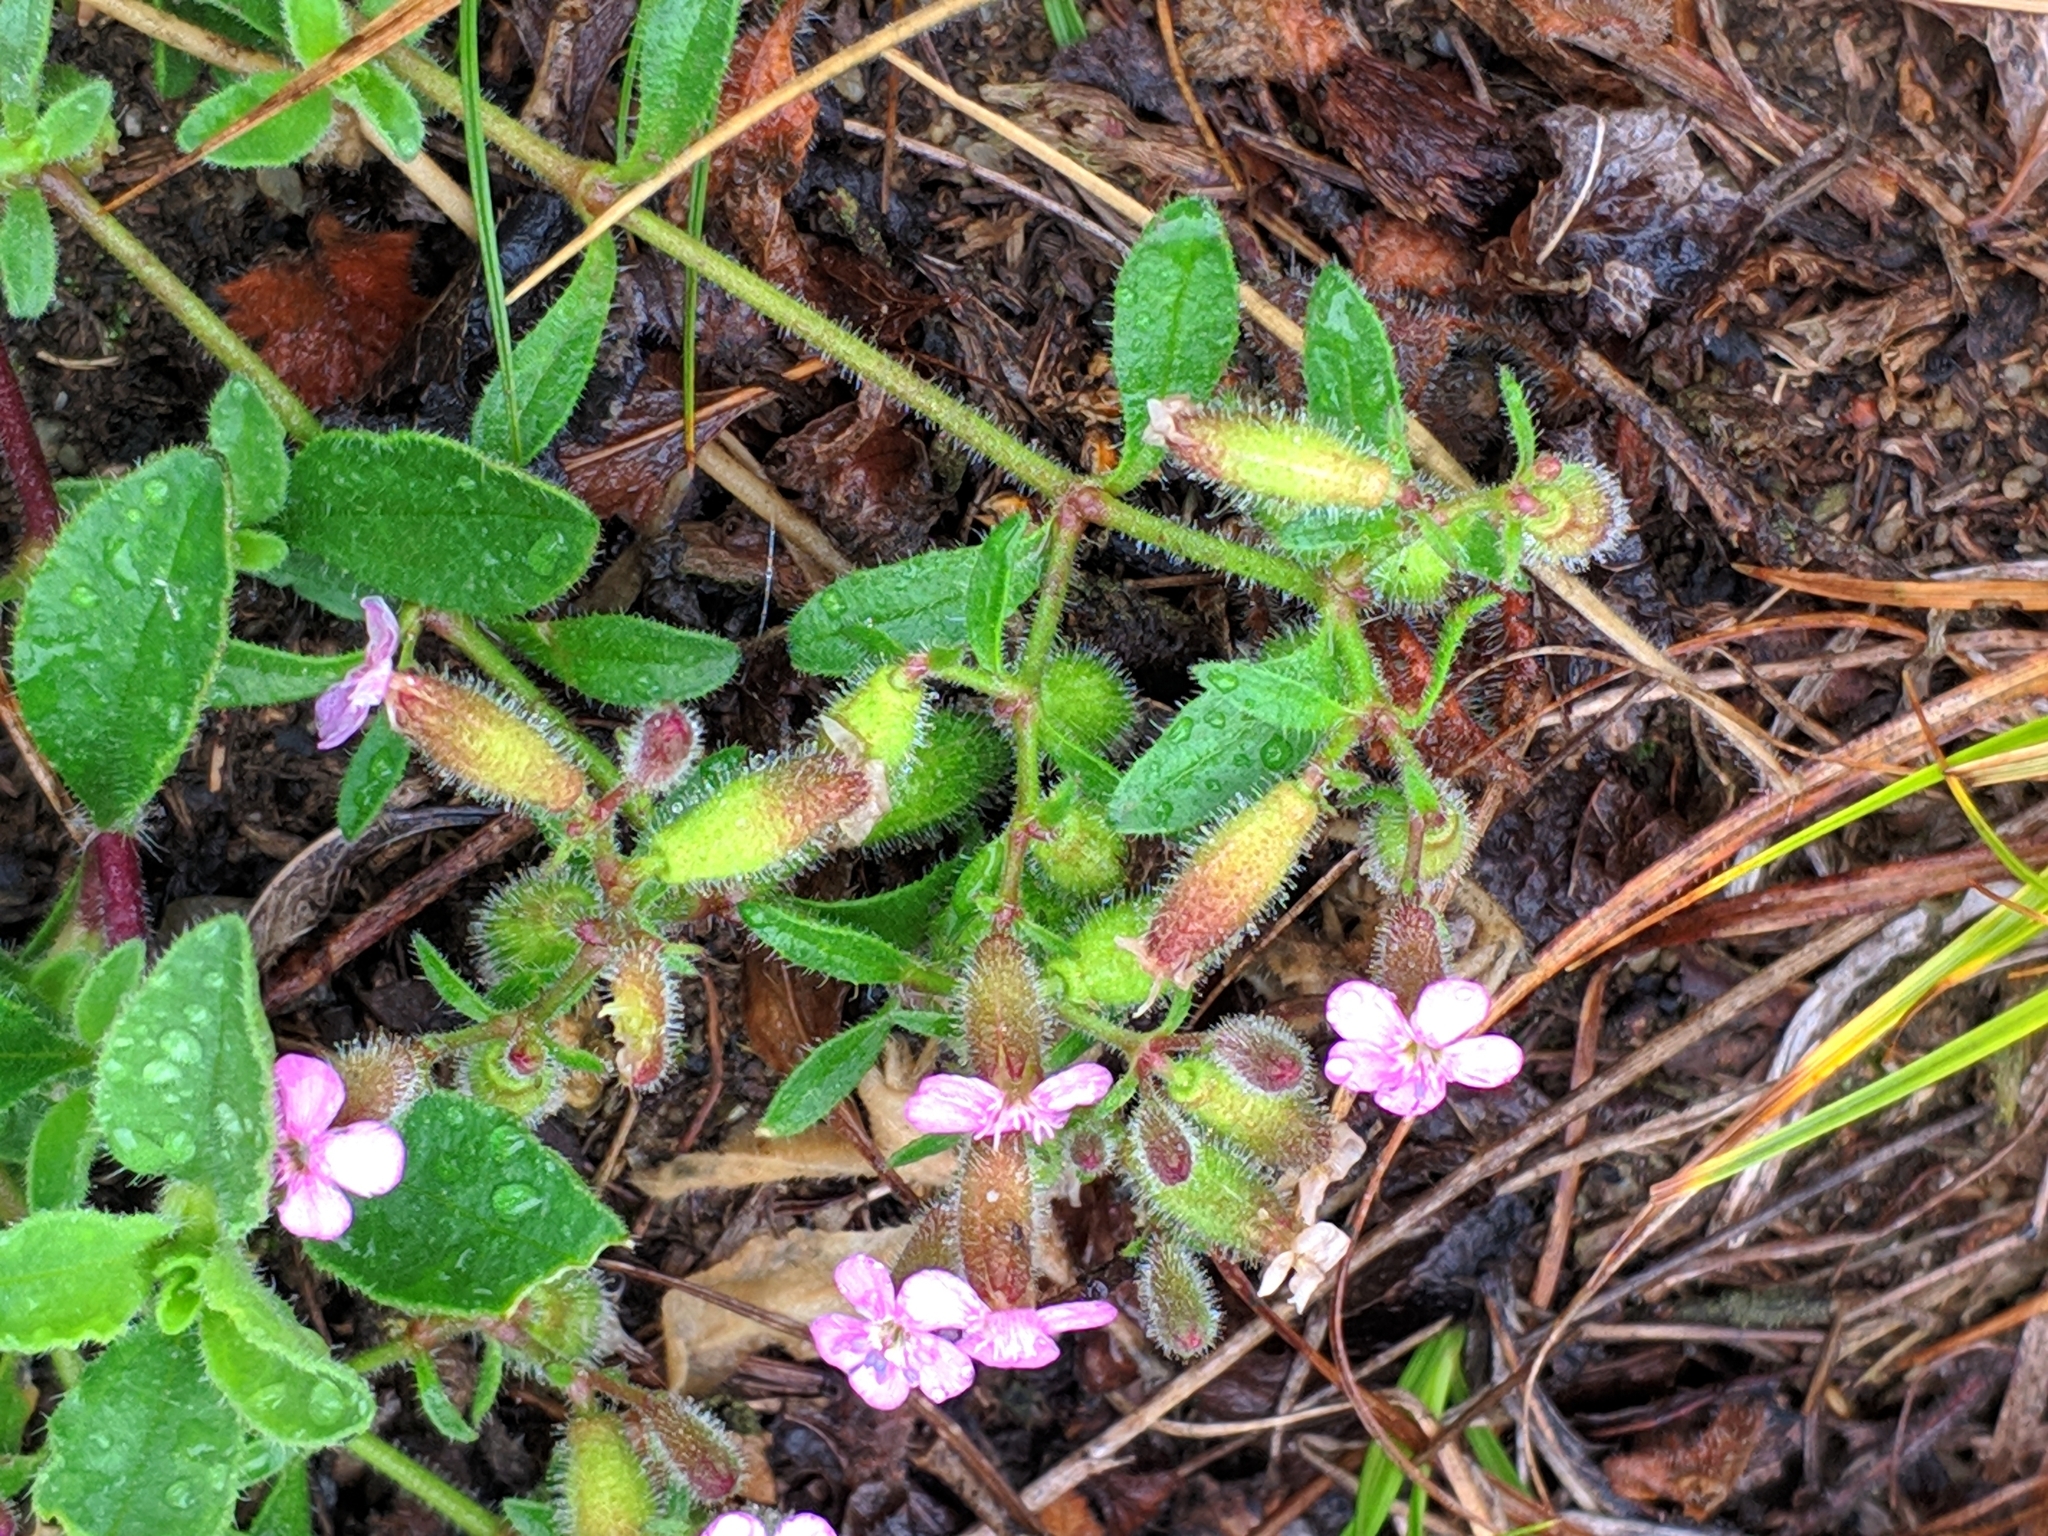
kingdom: Plantae
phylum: Tracheophyta
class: Magnoliopsida
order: Caryophyllales
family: Caryophyllaceae
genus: Saponaria
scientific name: Saponaria ocymoides
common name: Rock soapwort
